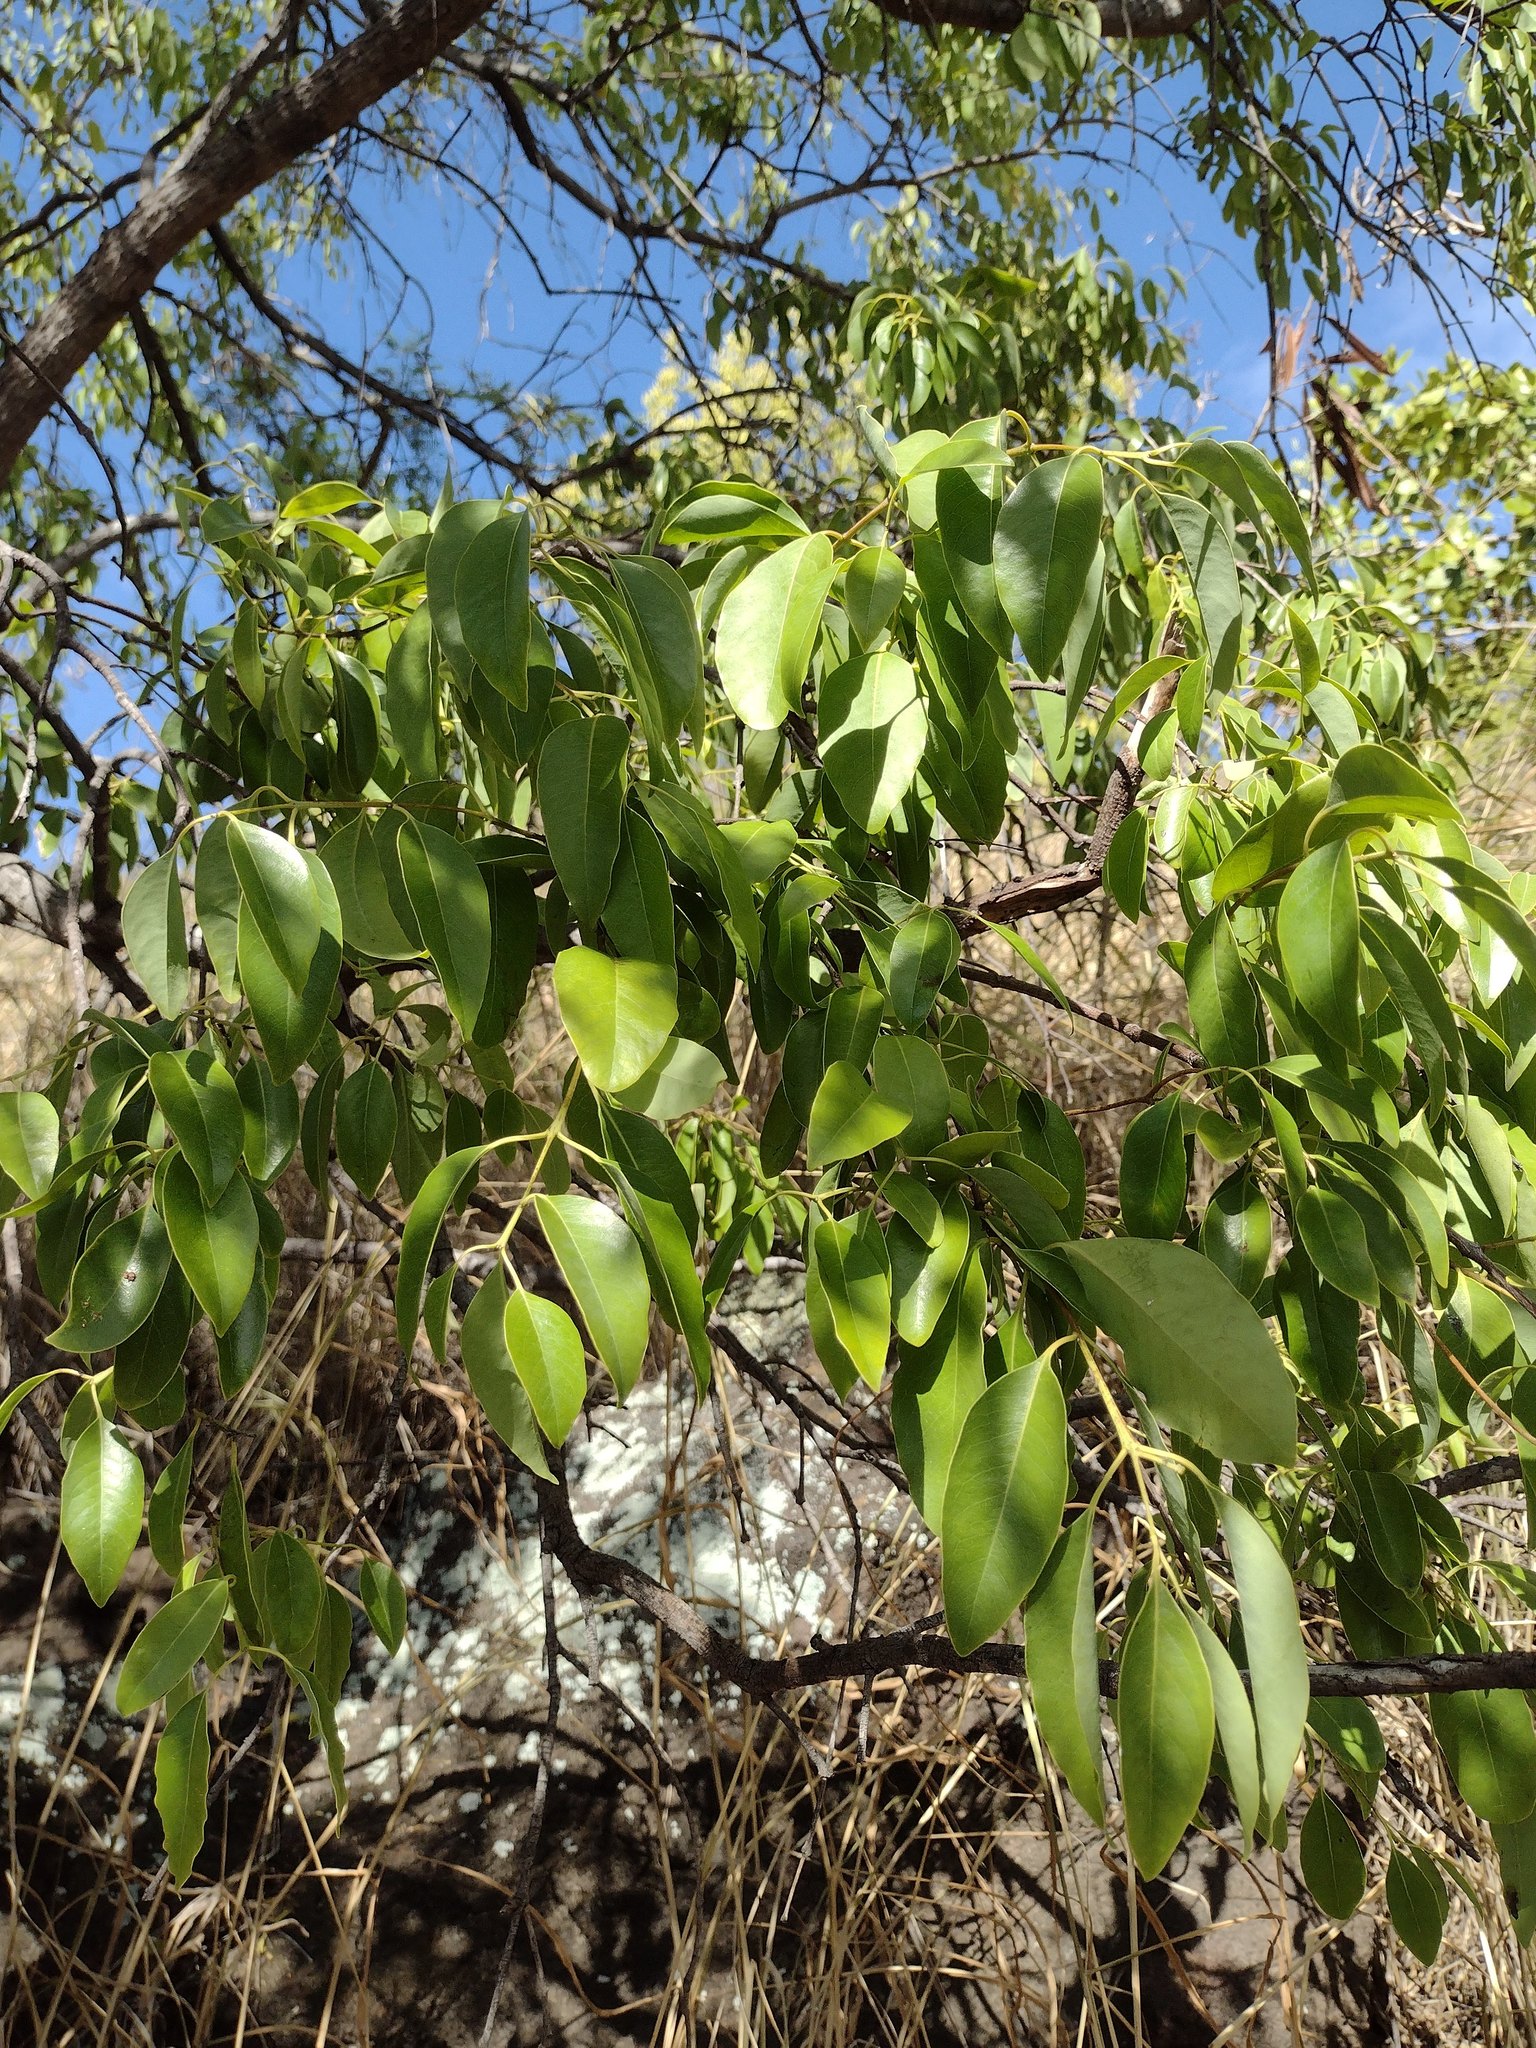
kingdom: Plantae
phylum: Tracheophyta
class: Magnoliopsida
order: Santalales
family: Santalaceae
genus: Santalum
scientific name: Santalum album
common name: Indian sandalwood
